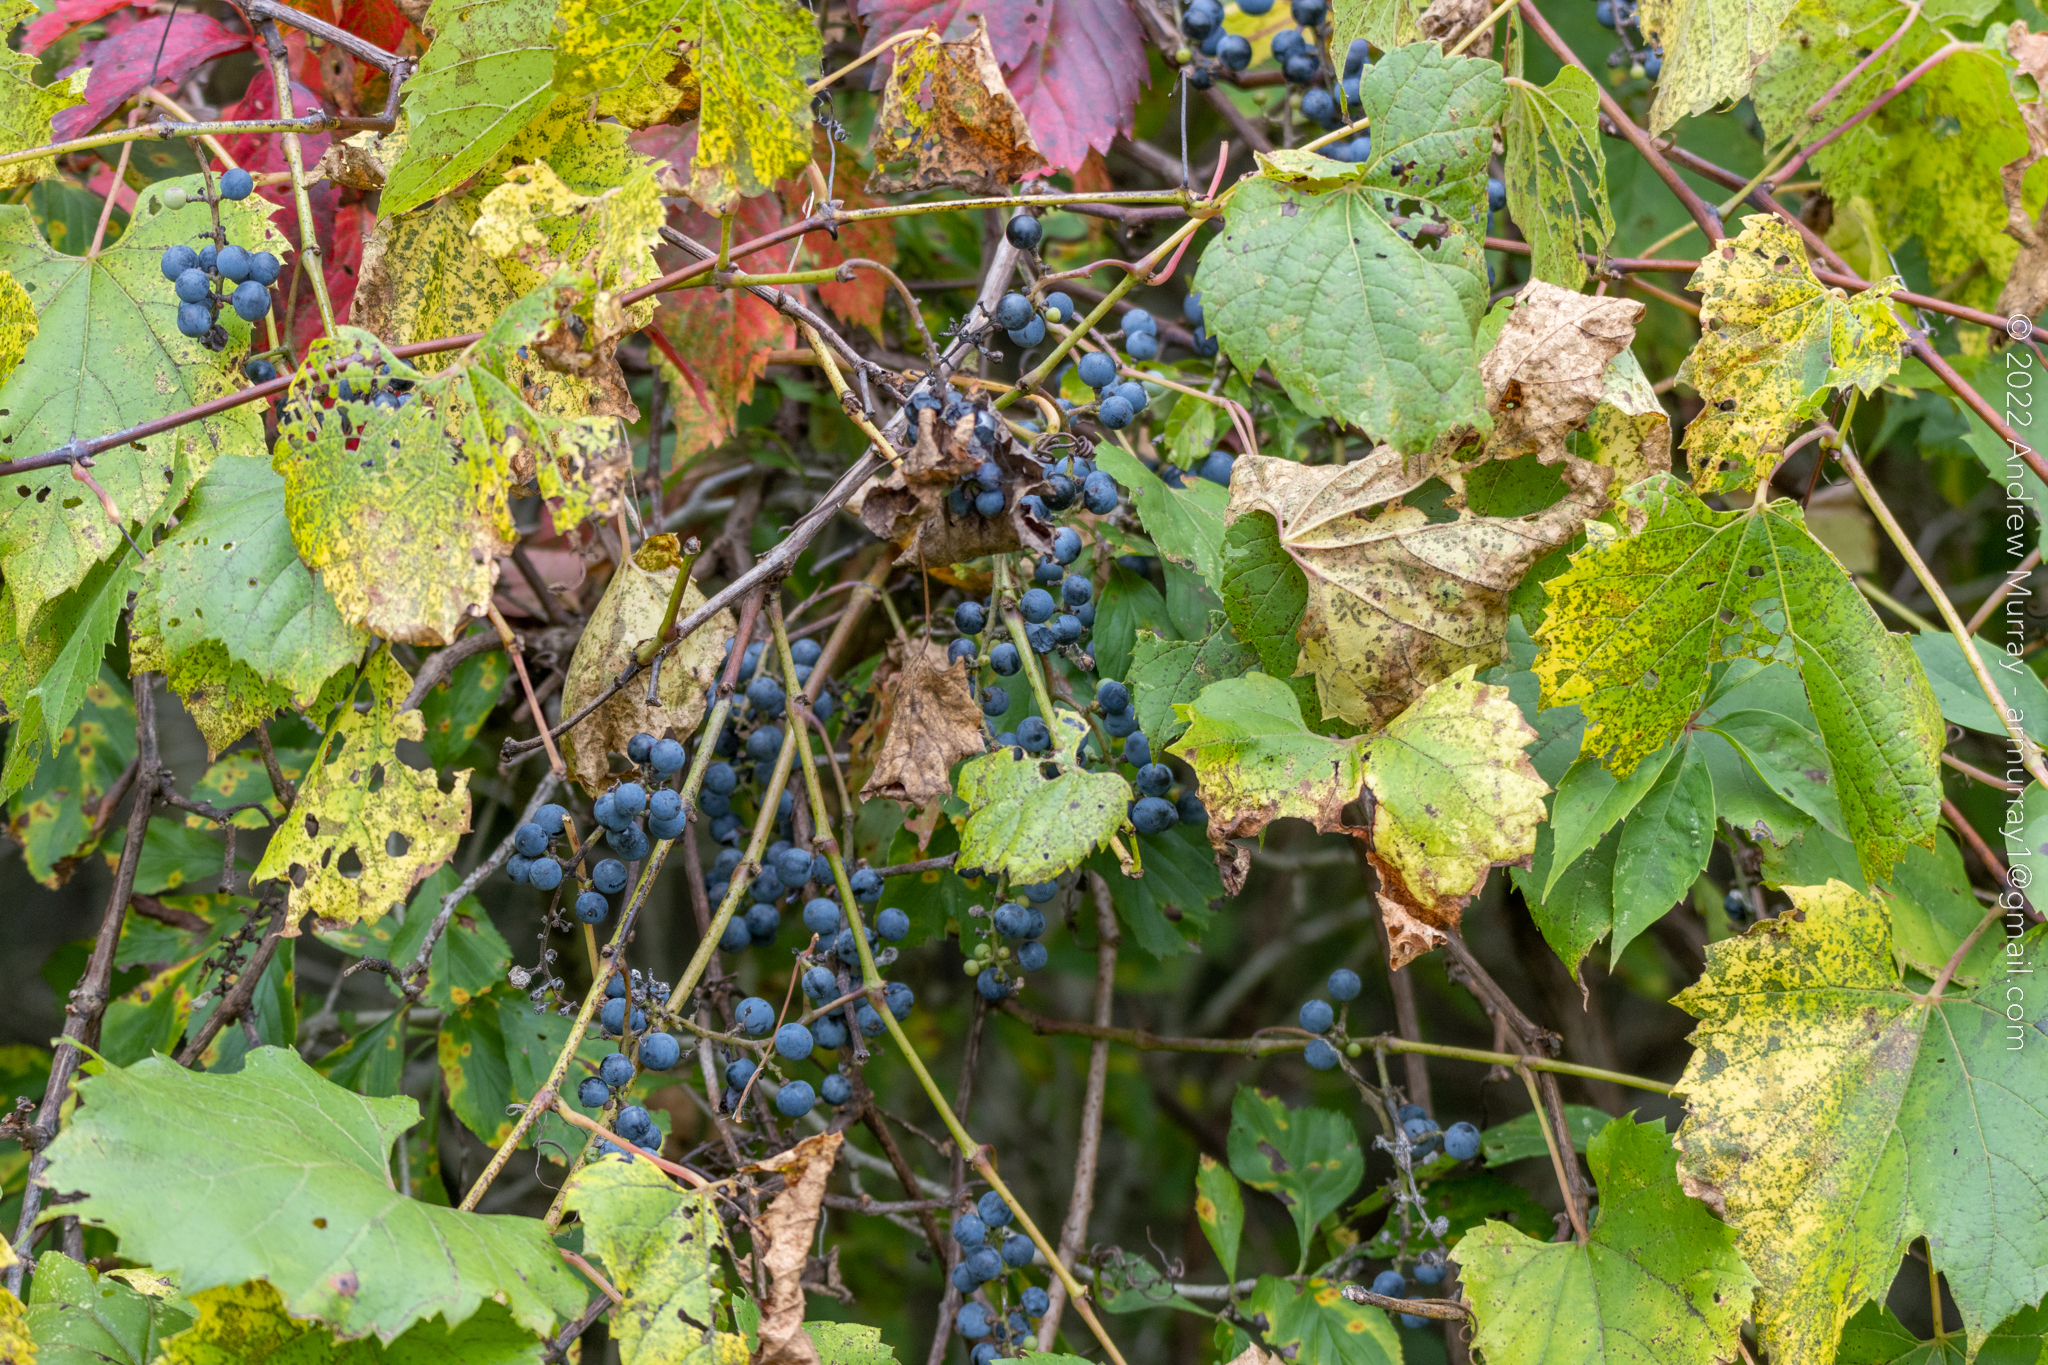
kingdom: Plantae
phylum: Tracheophyta
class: Magnoliopsida
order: Vitales
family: Vitaceae
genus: Vitis
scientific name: Vitis riparia
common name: Frost grape
